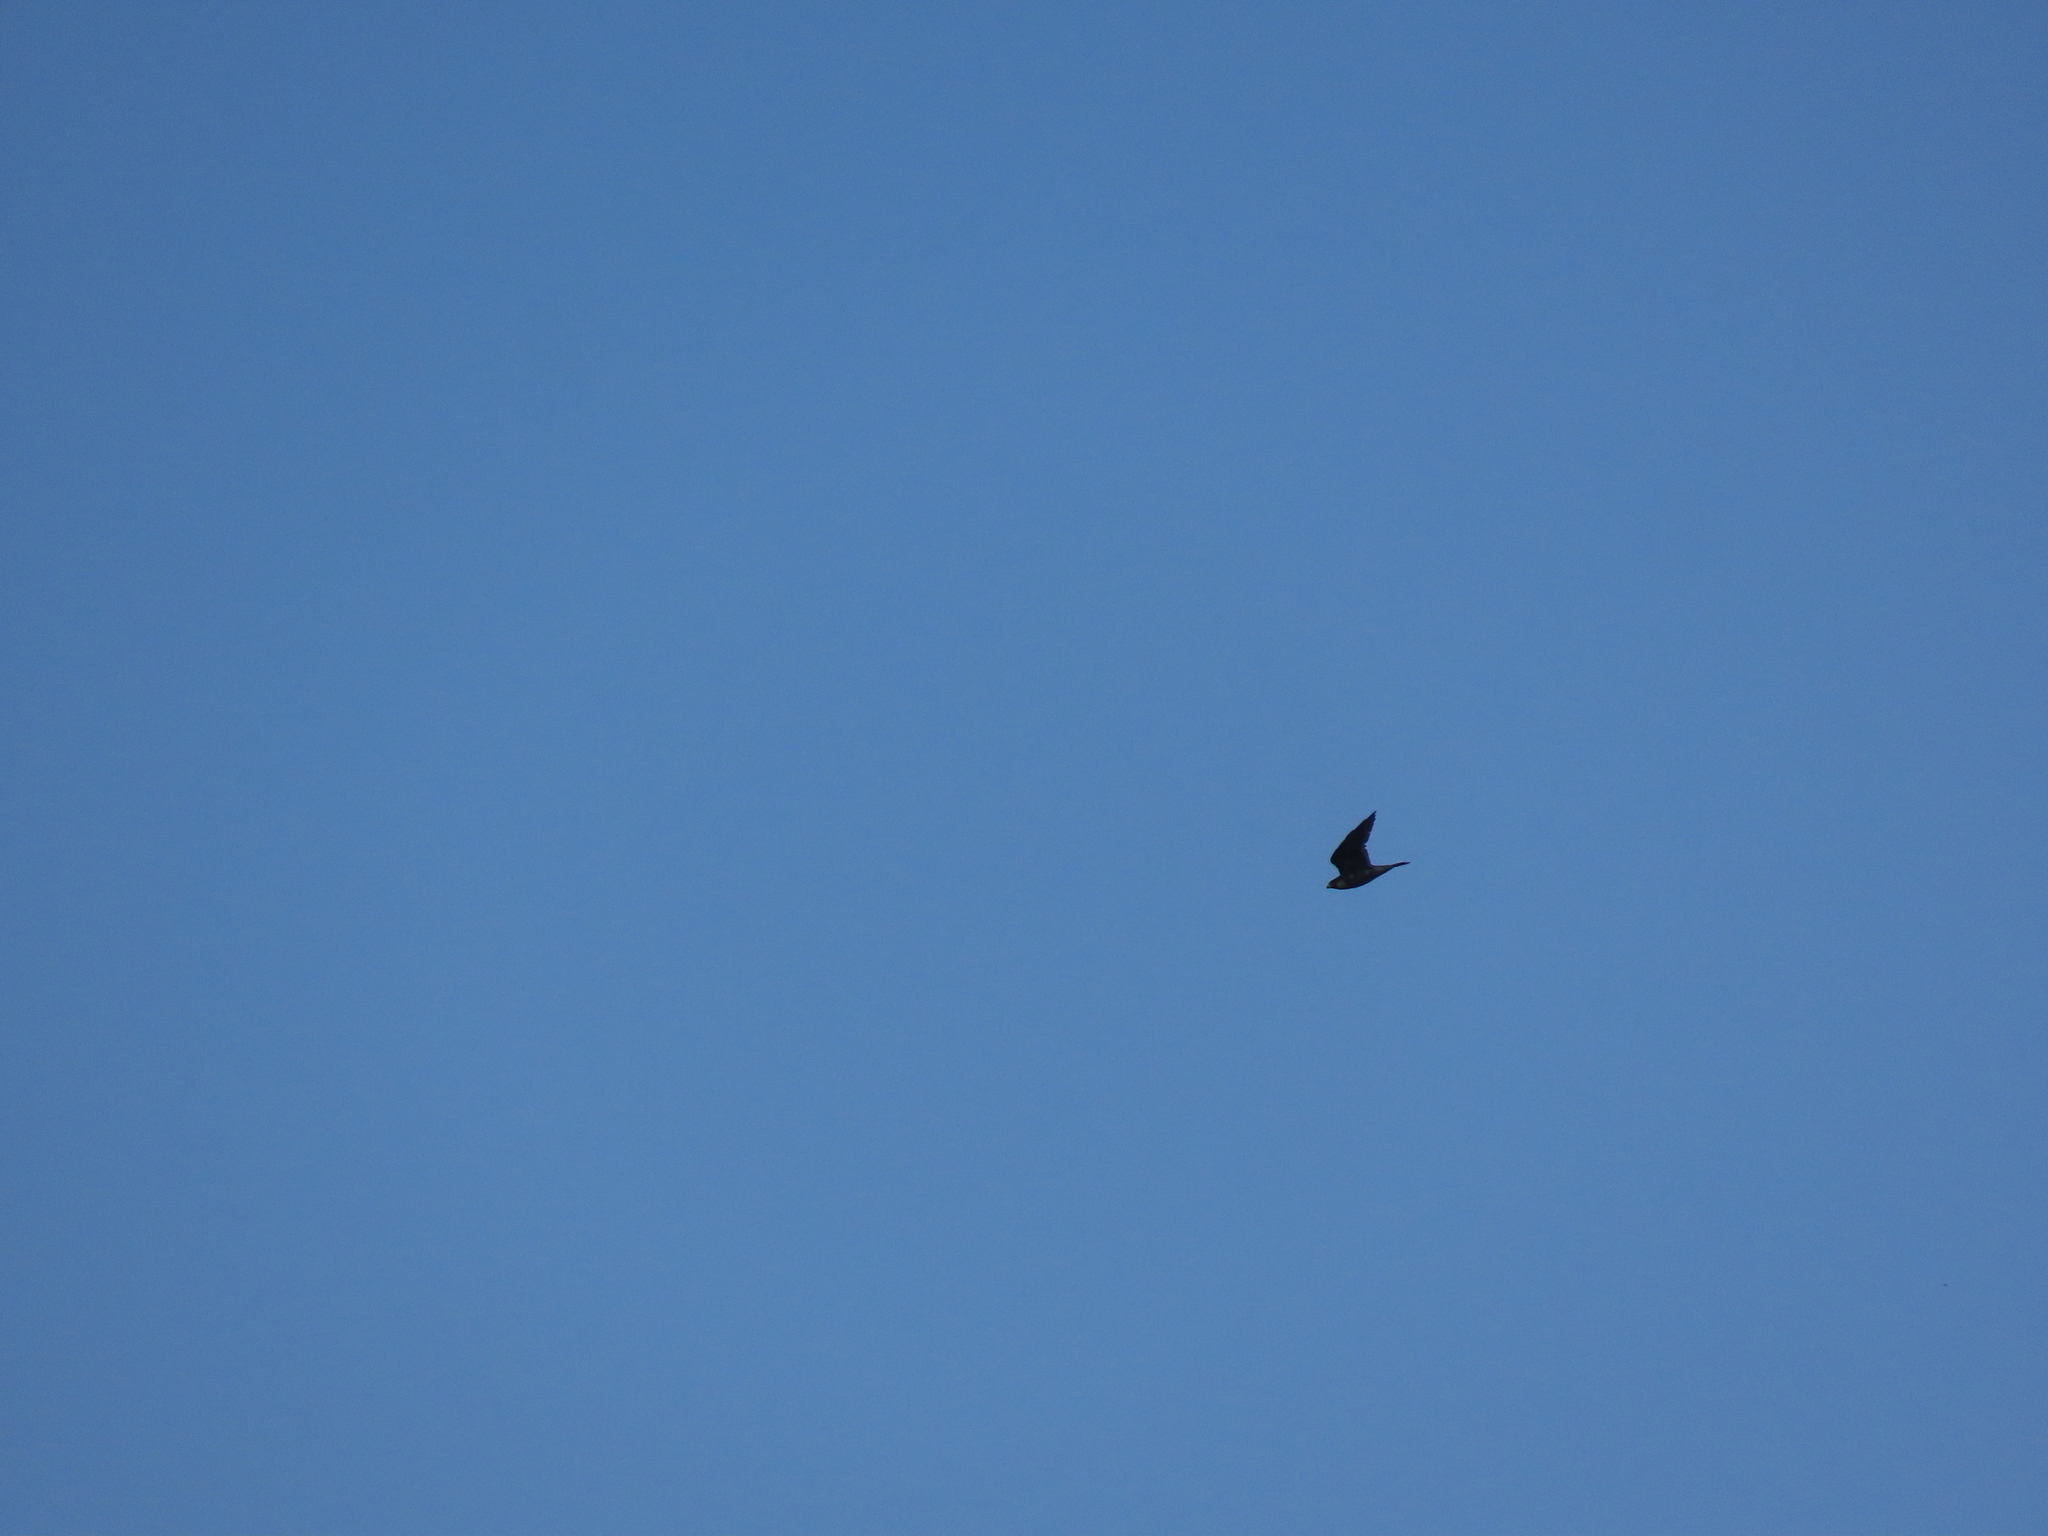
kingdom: Animalia
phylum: Chordata
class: Aves
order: Falconiformes
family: Falconidae
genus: Falco
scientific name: Falco peregrinus
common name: Peregrine falcon
